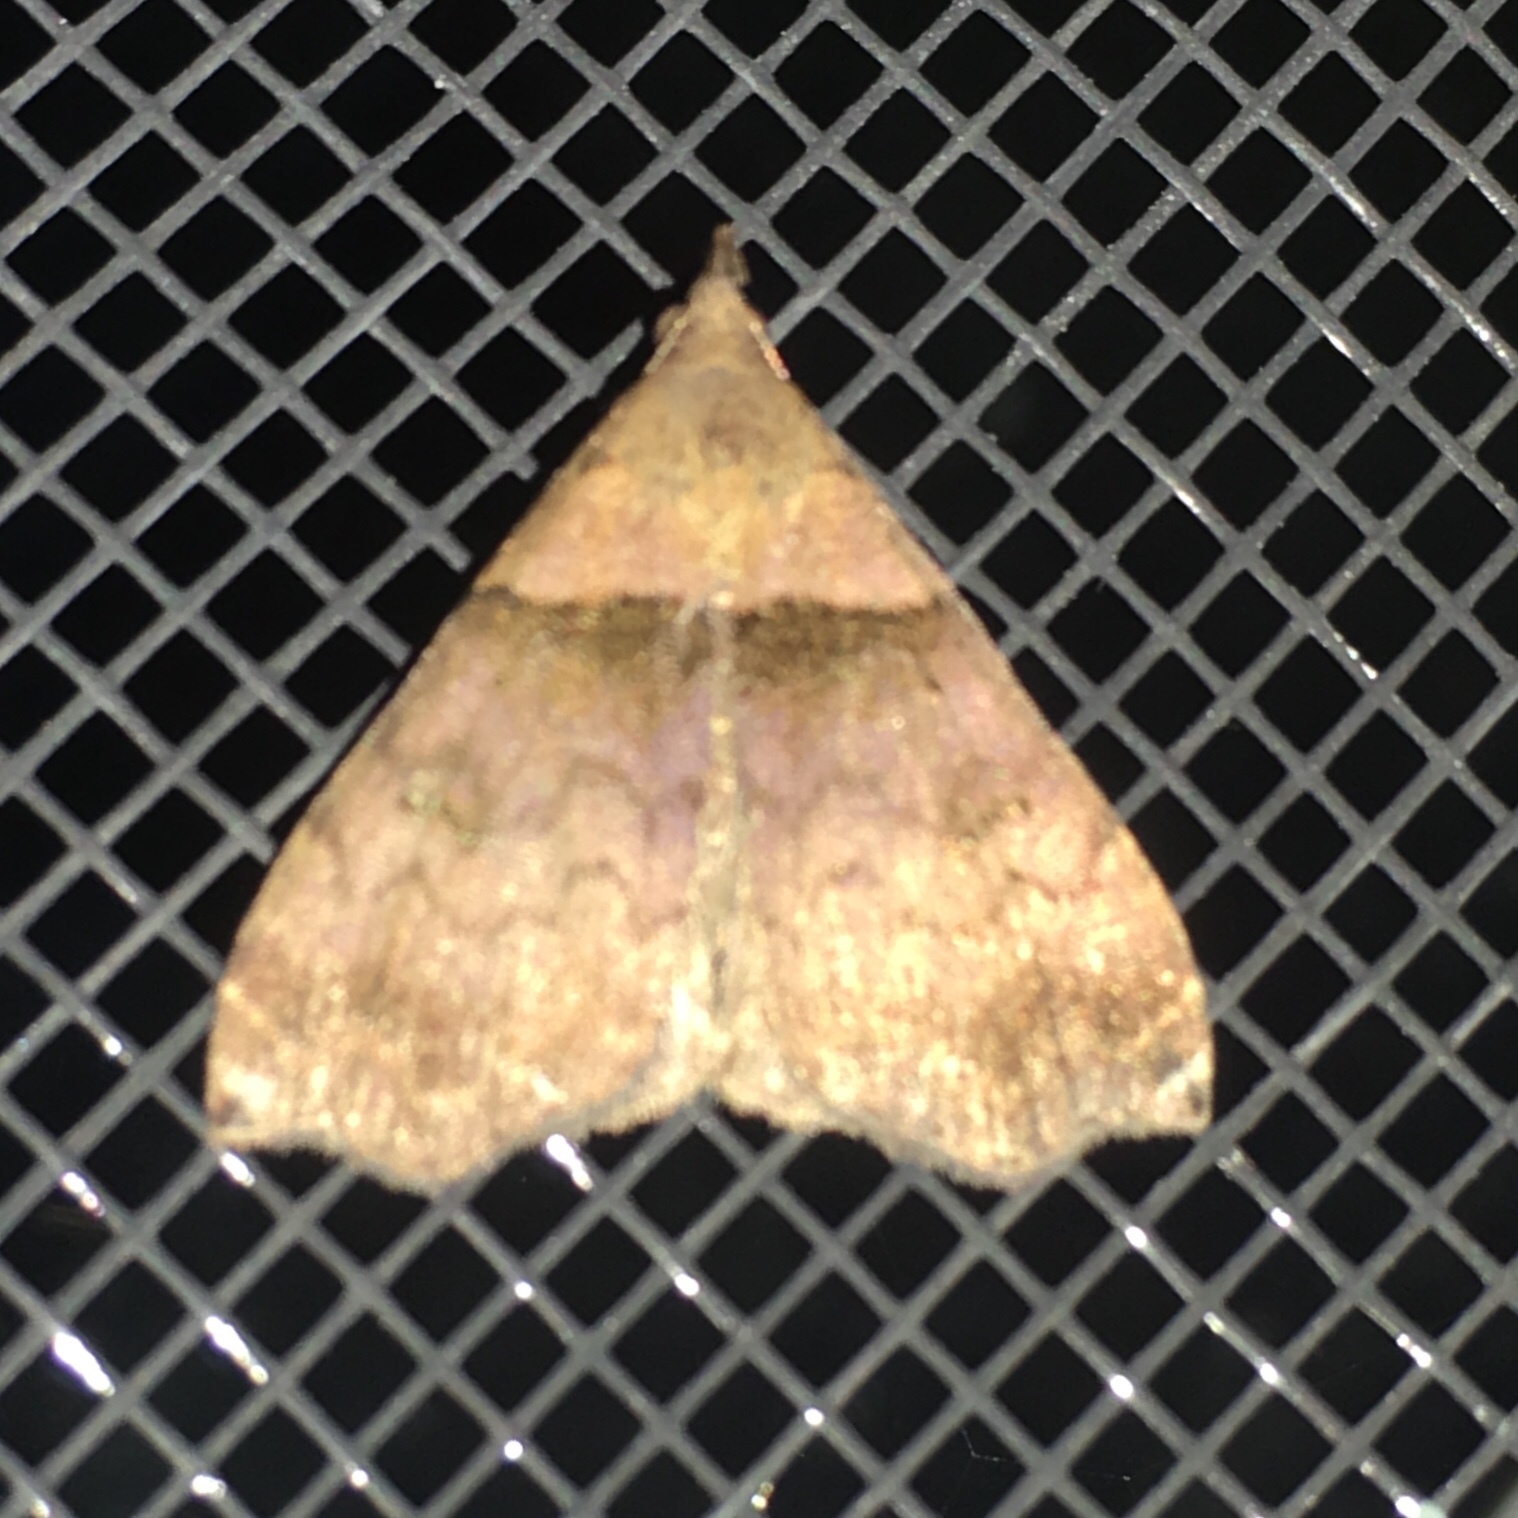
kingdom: Animalia
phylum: Arthropoda
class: Insecta
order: Lepidoptera
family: Erebidae
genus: Lascoria
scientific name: Lascoria ambigualis
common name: Ambiguous moth
